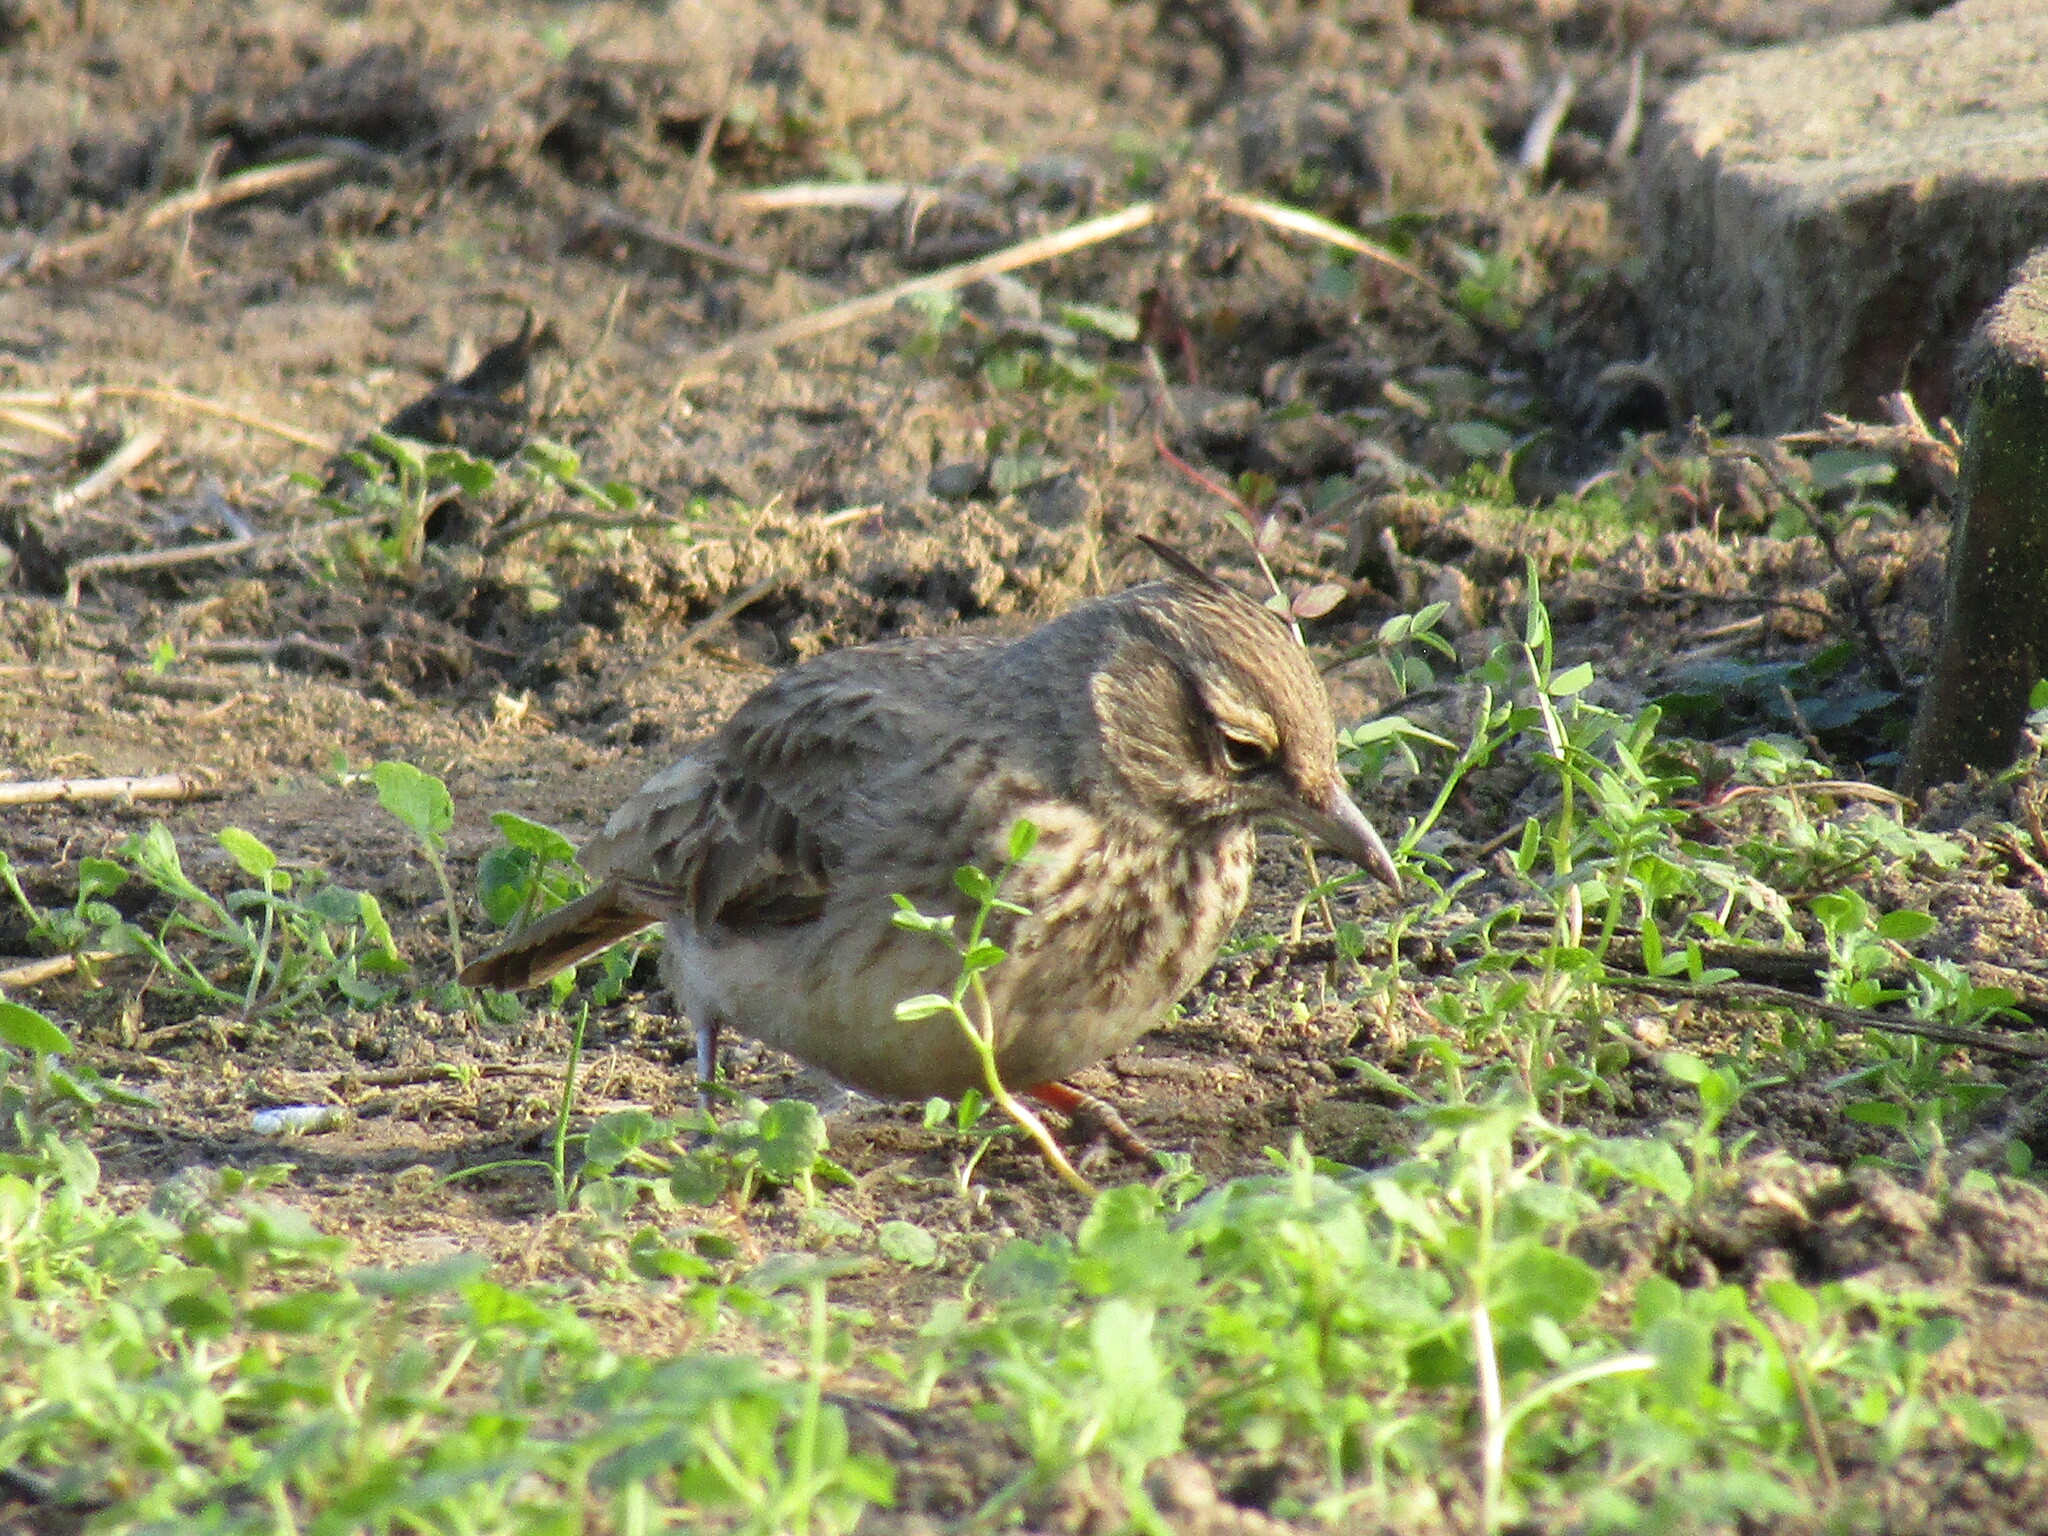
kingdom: Animalia
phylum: Chordata
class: Aves
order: Passeriformes
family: Alaudidae
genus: Galerida
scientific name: Galerida cristata
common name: Crested lark
